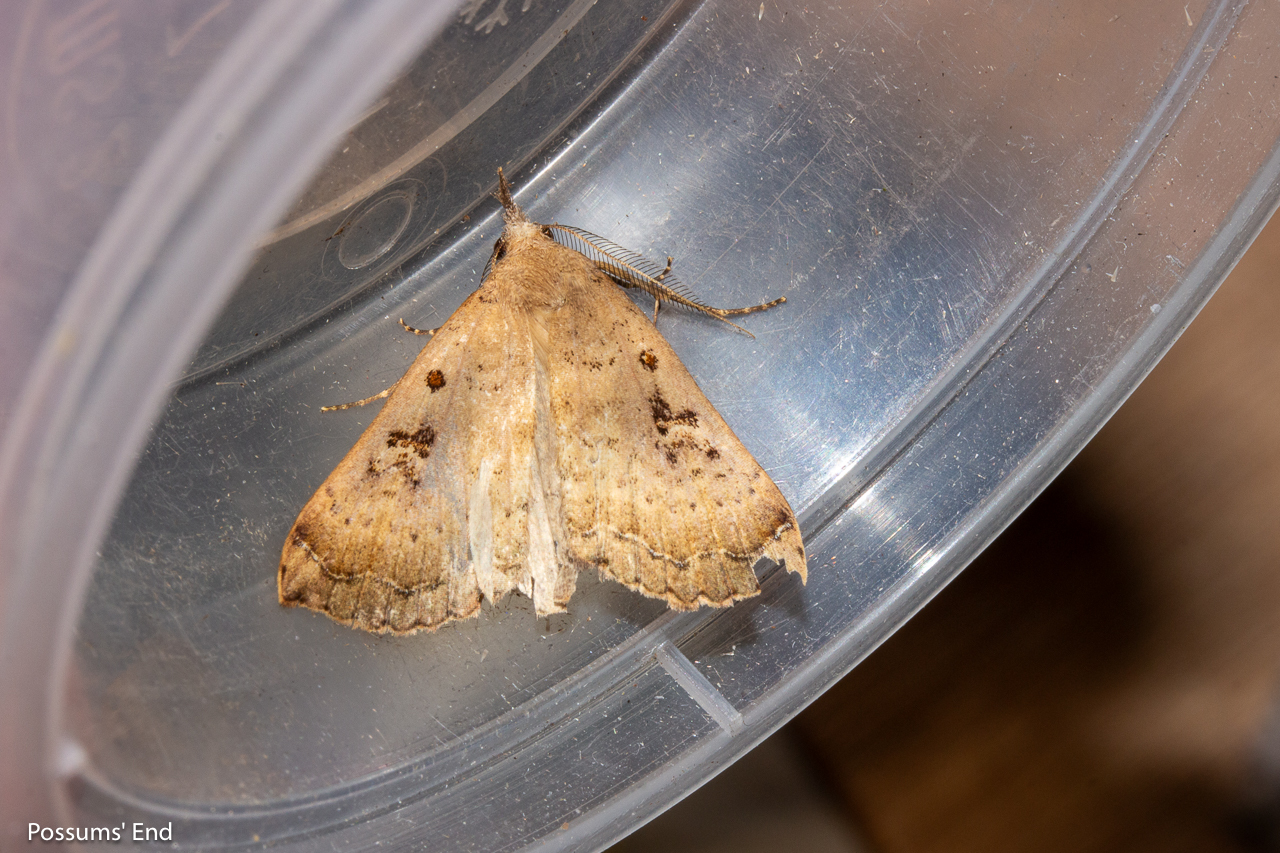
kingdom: Animalia
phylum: Arthropoda
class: Insecta
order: Lepidoptera
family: Erebidae
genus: Rhapsa
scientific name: Rhapsa scotosialis
